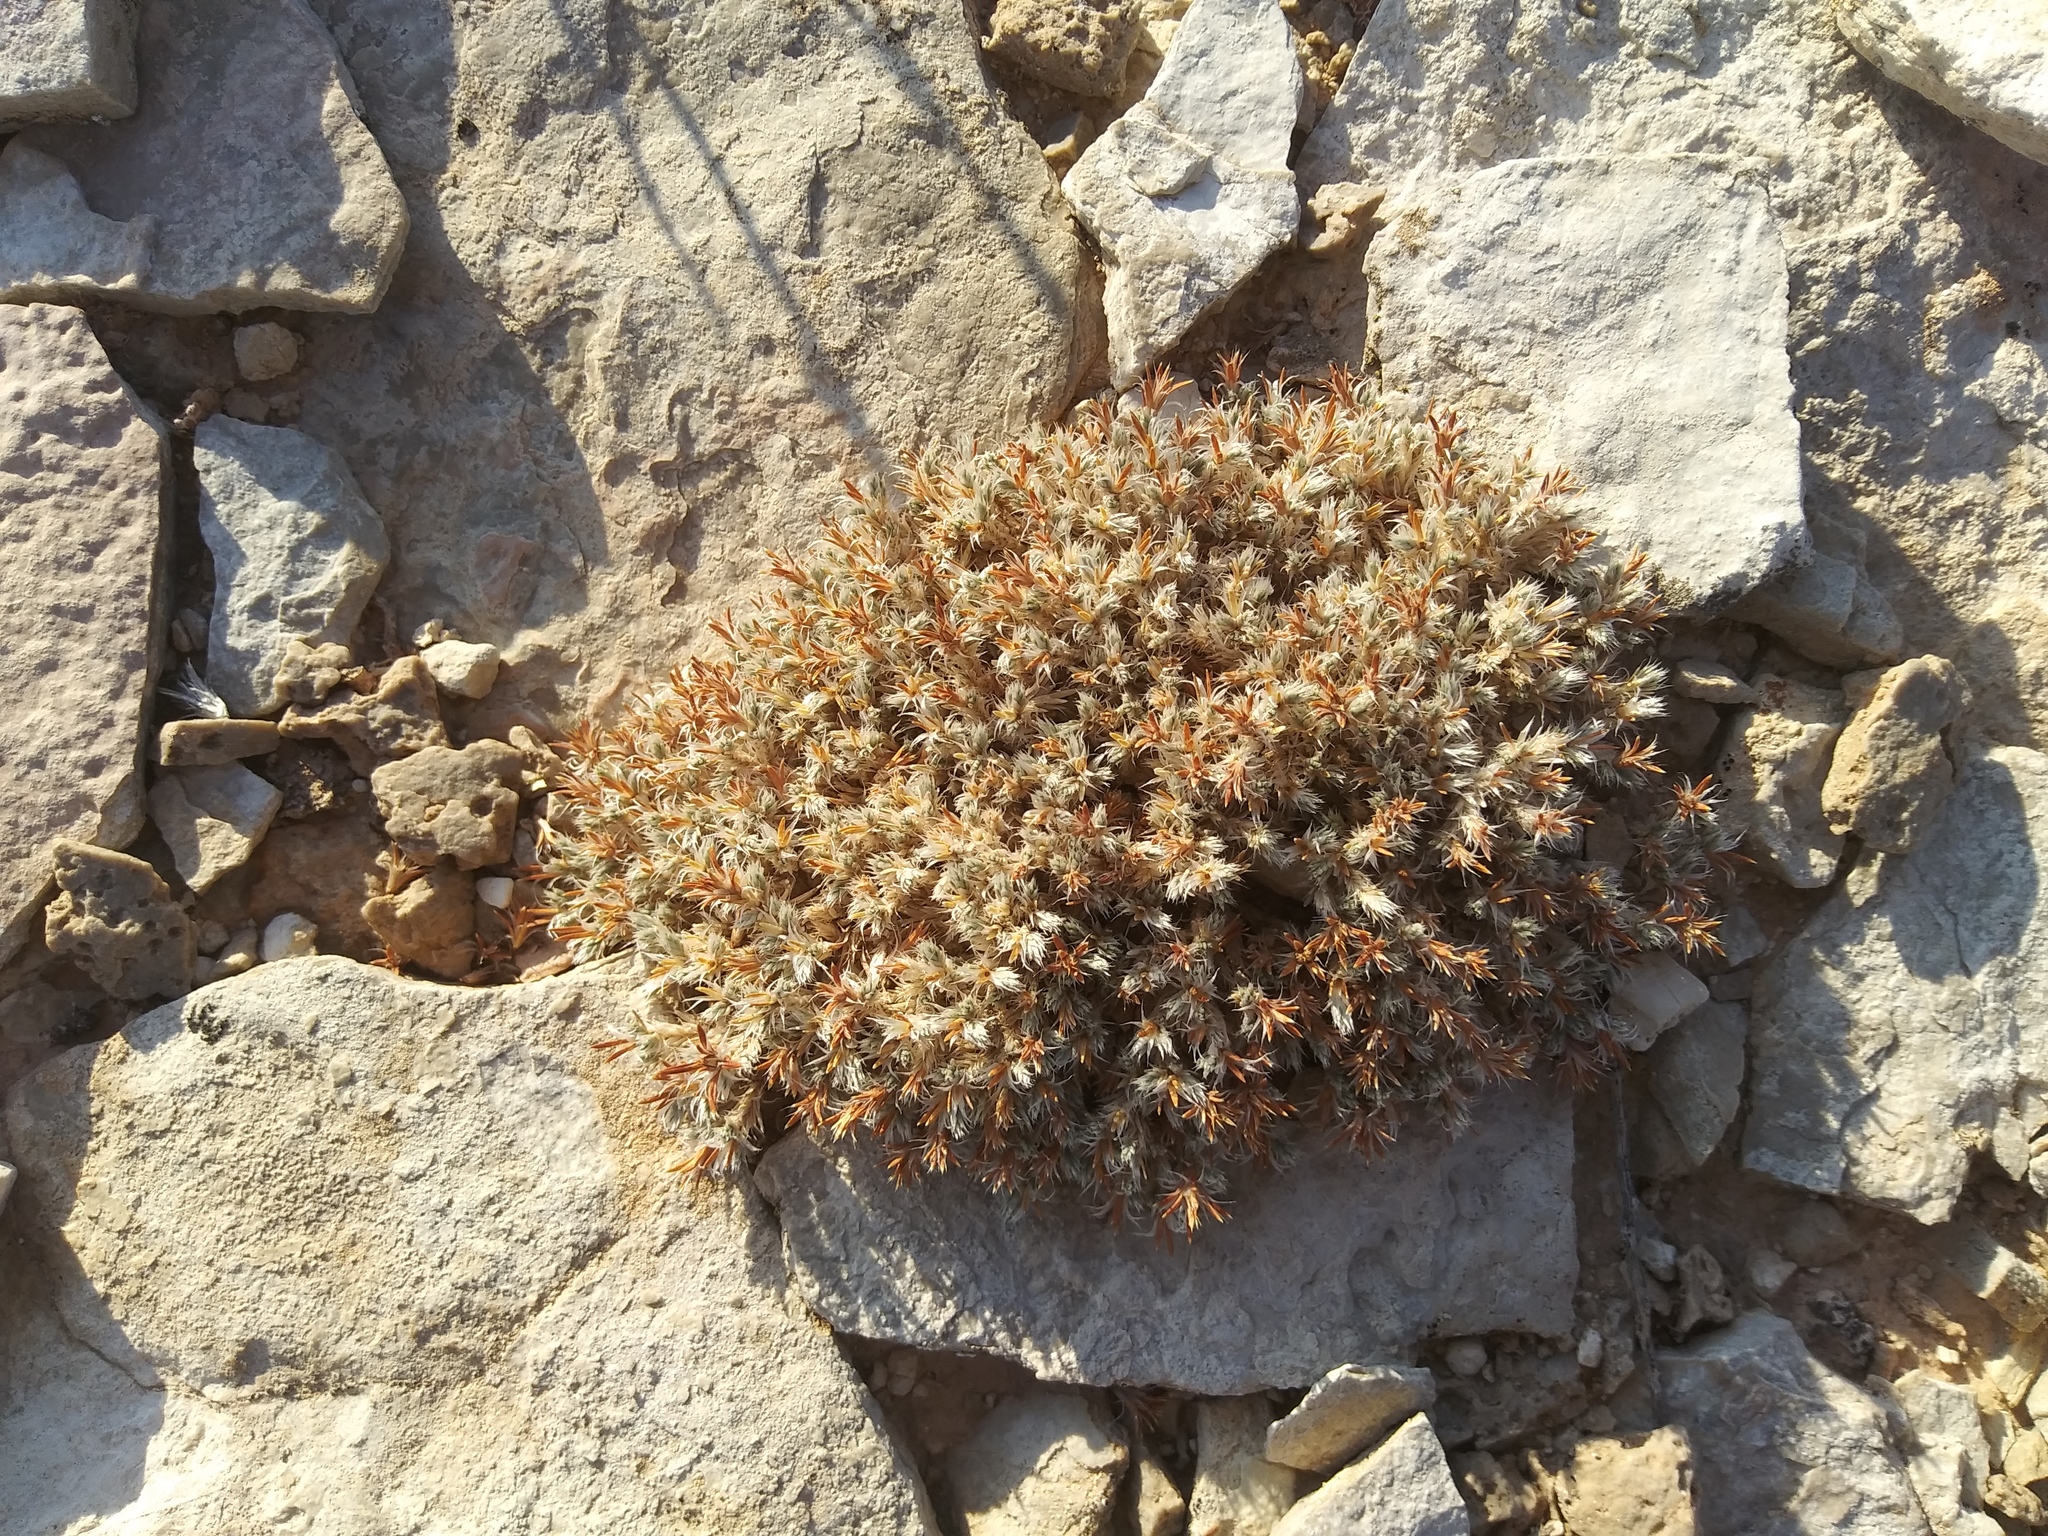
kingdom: Plantae
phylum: Tracheophyta
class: Magnoliopsida
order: Caryophyllales
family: Caryophyllaceae
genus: Paronychia
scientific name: Paronychia sessiliflora
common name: Creeping nailwort
